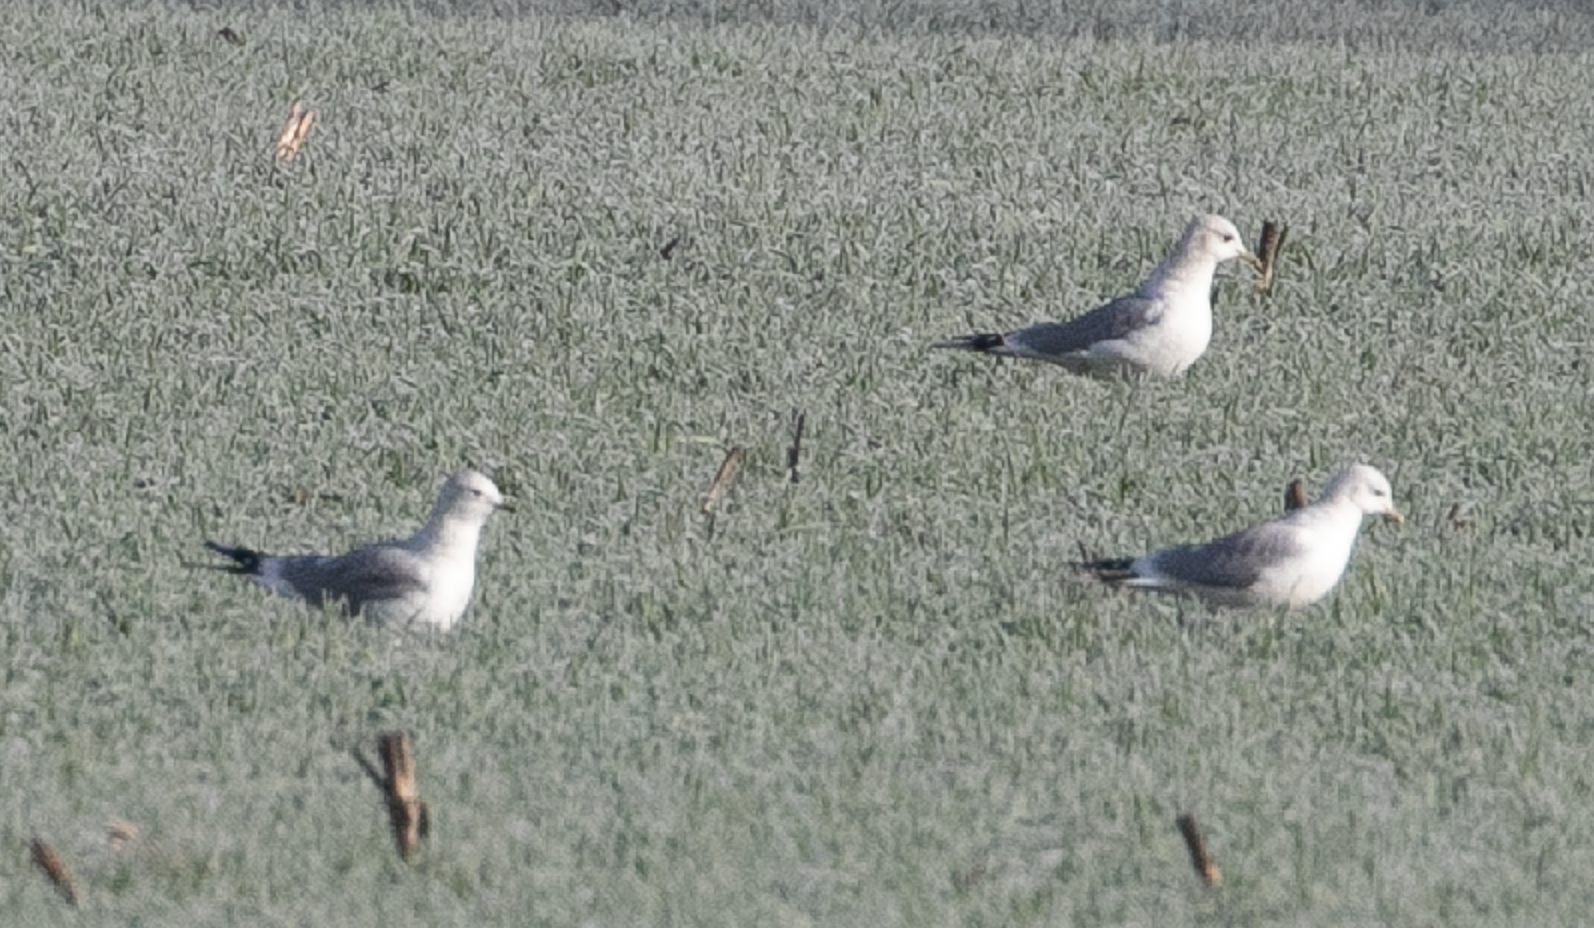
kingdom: Animalia
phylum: Chordata
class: Aves
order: Charadriiformes
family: Laridae
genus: Larus
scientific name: Larus canus
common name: Mew gull
